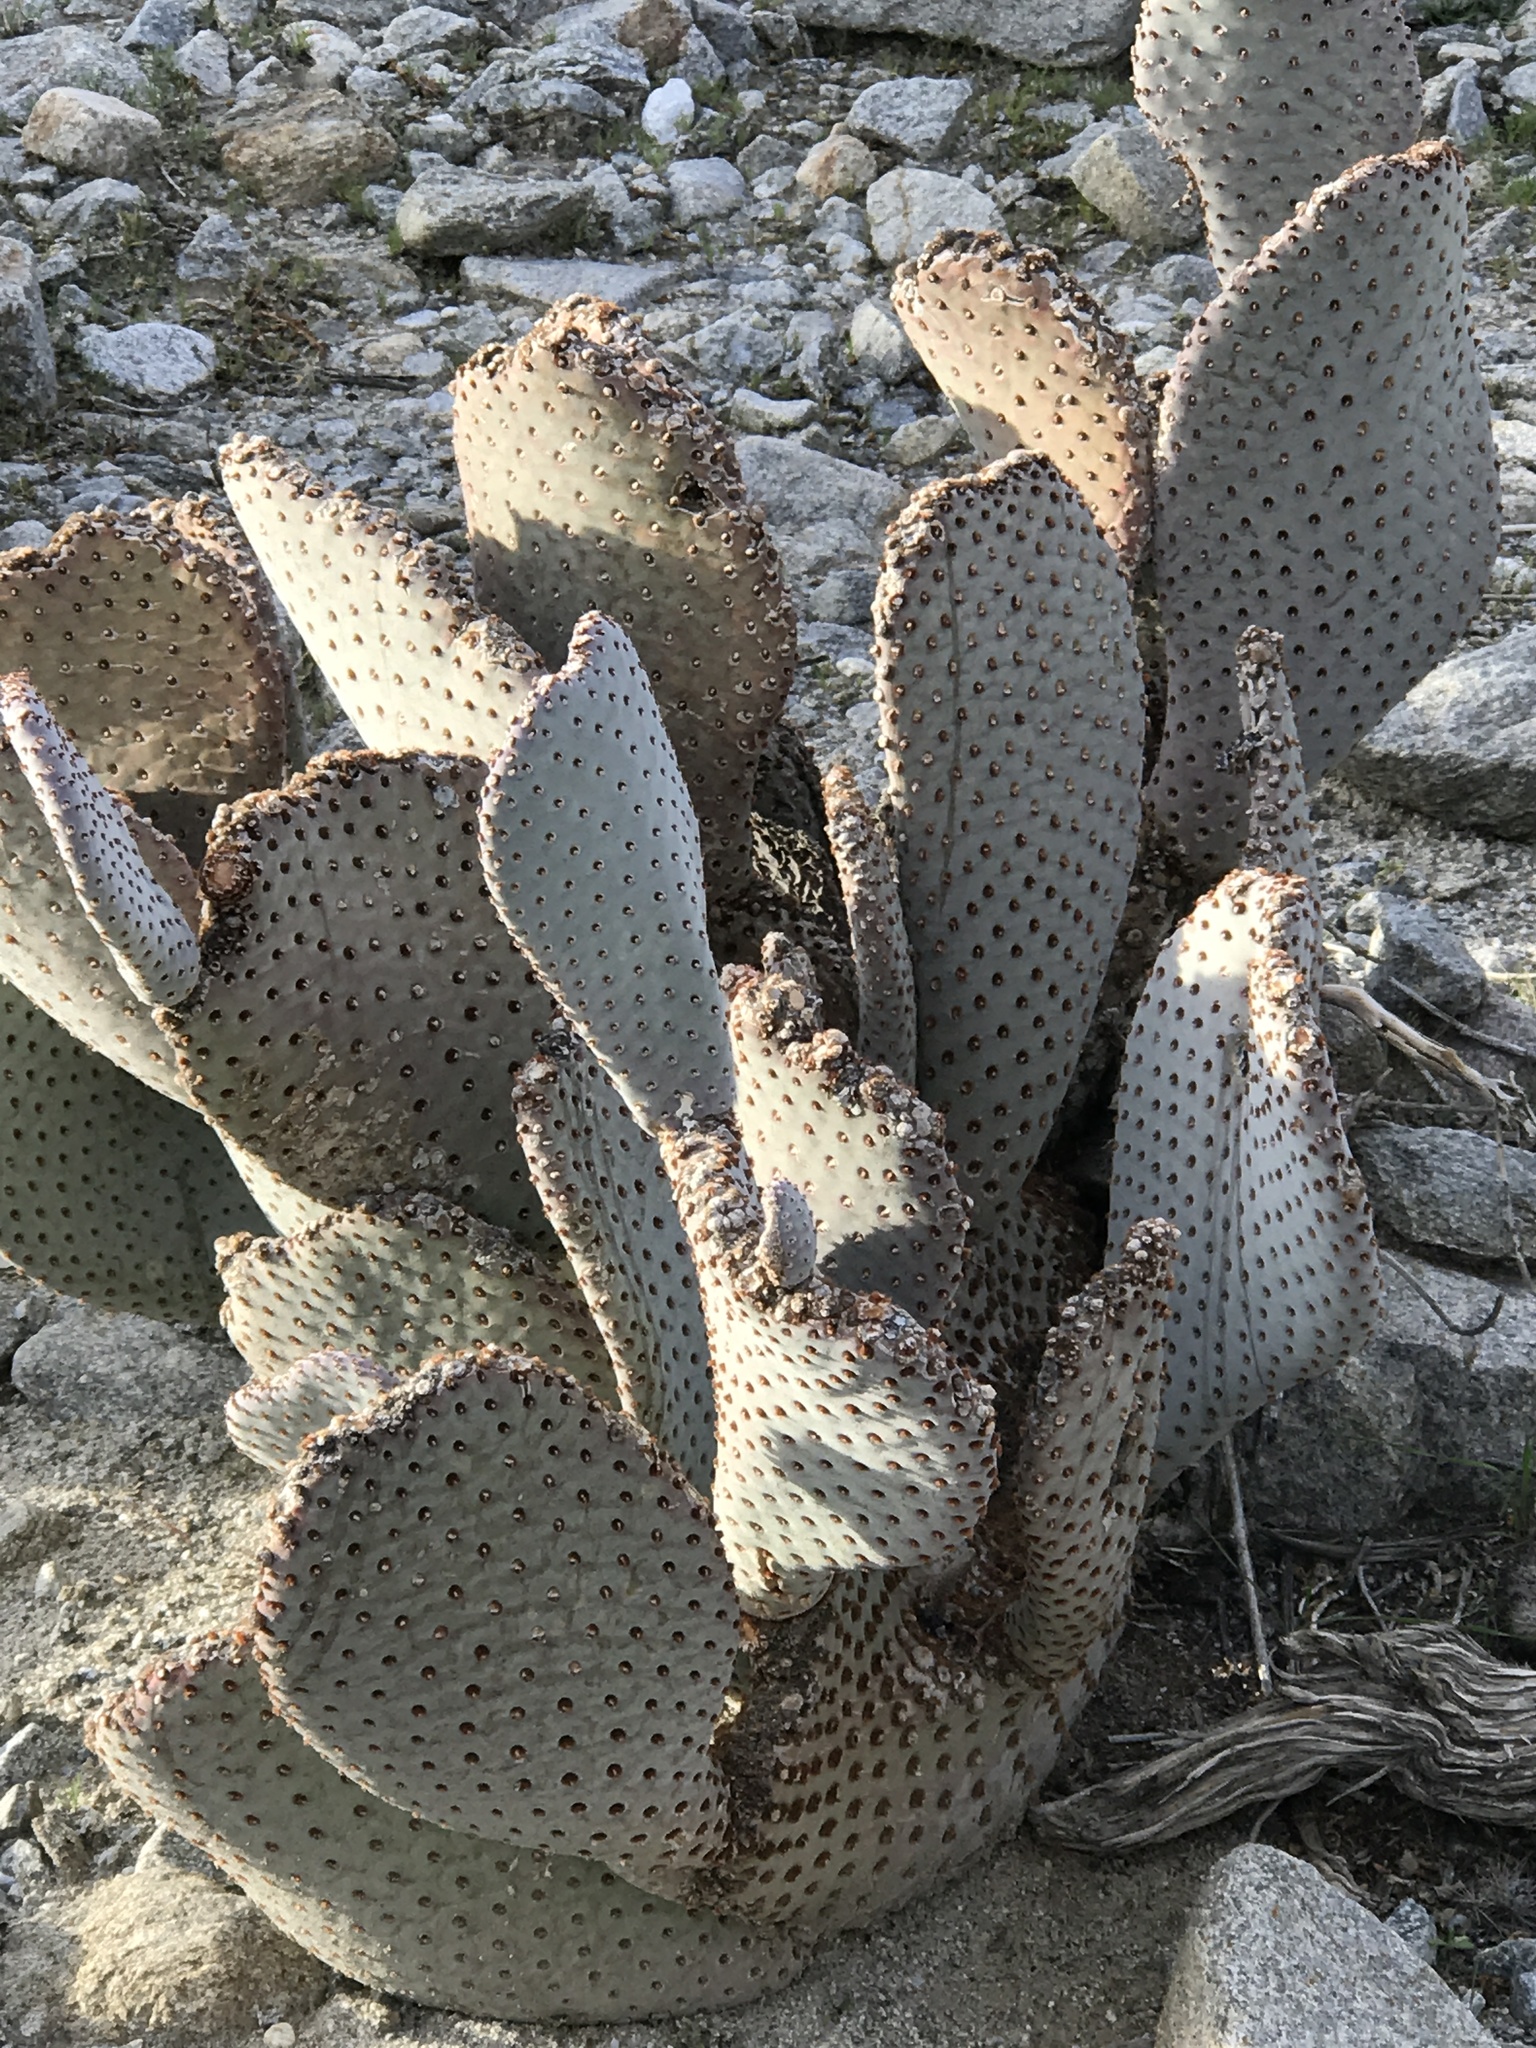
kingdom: Plantae
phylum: Tracheophyta
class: Magnoliopsida
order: Caryophyllales
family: Cactaceae
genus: Opuntia
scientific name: Opuntia basilaris
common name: Beavertail prickly-pear
